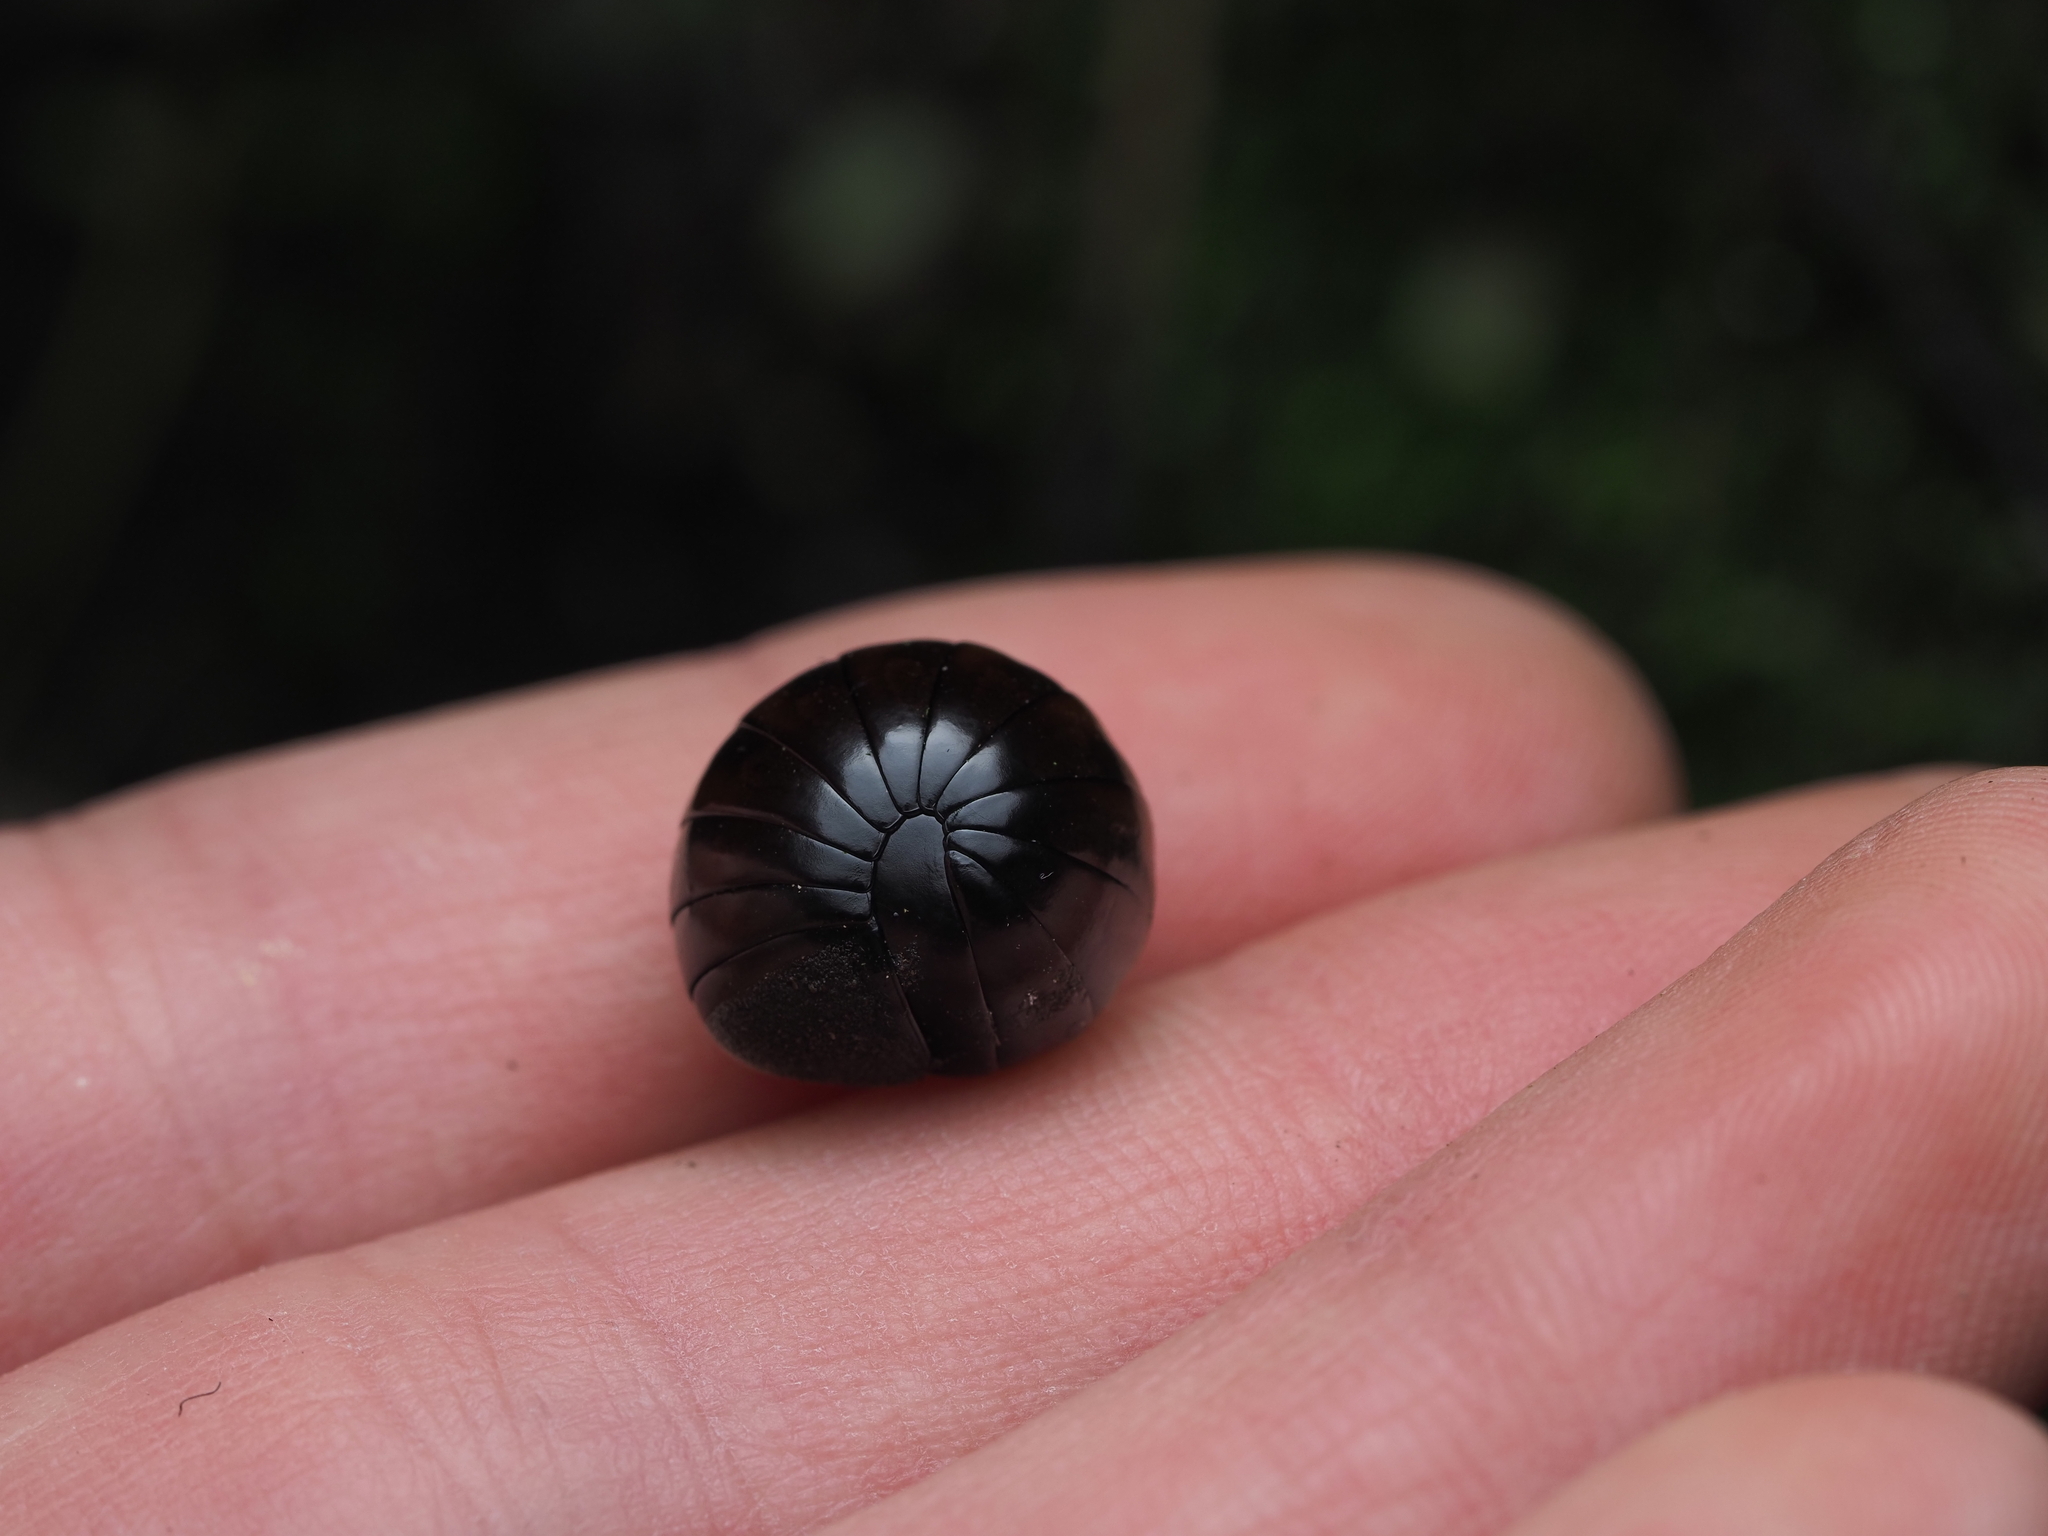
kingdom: Animalia
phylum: Arthropoda
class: Diplopoda
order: Sphaerotheriida
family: Procyliosomatidae
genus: Procyliosoma
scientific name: Procyliosoma tuberculatum
